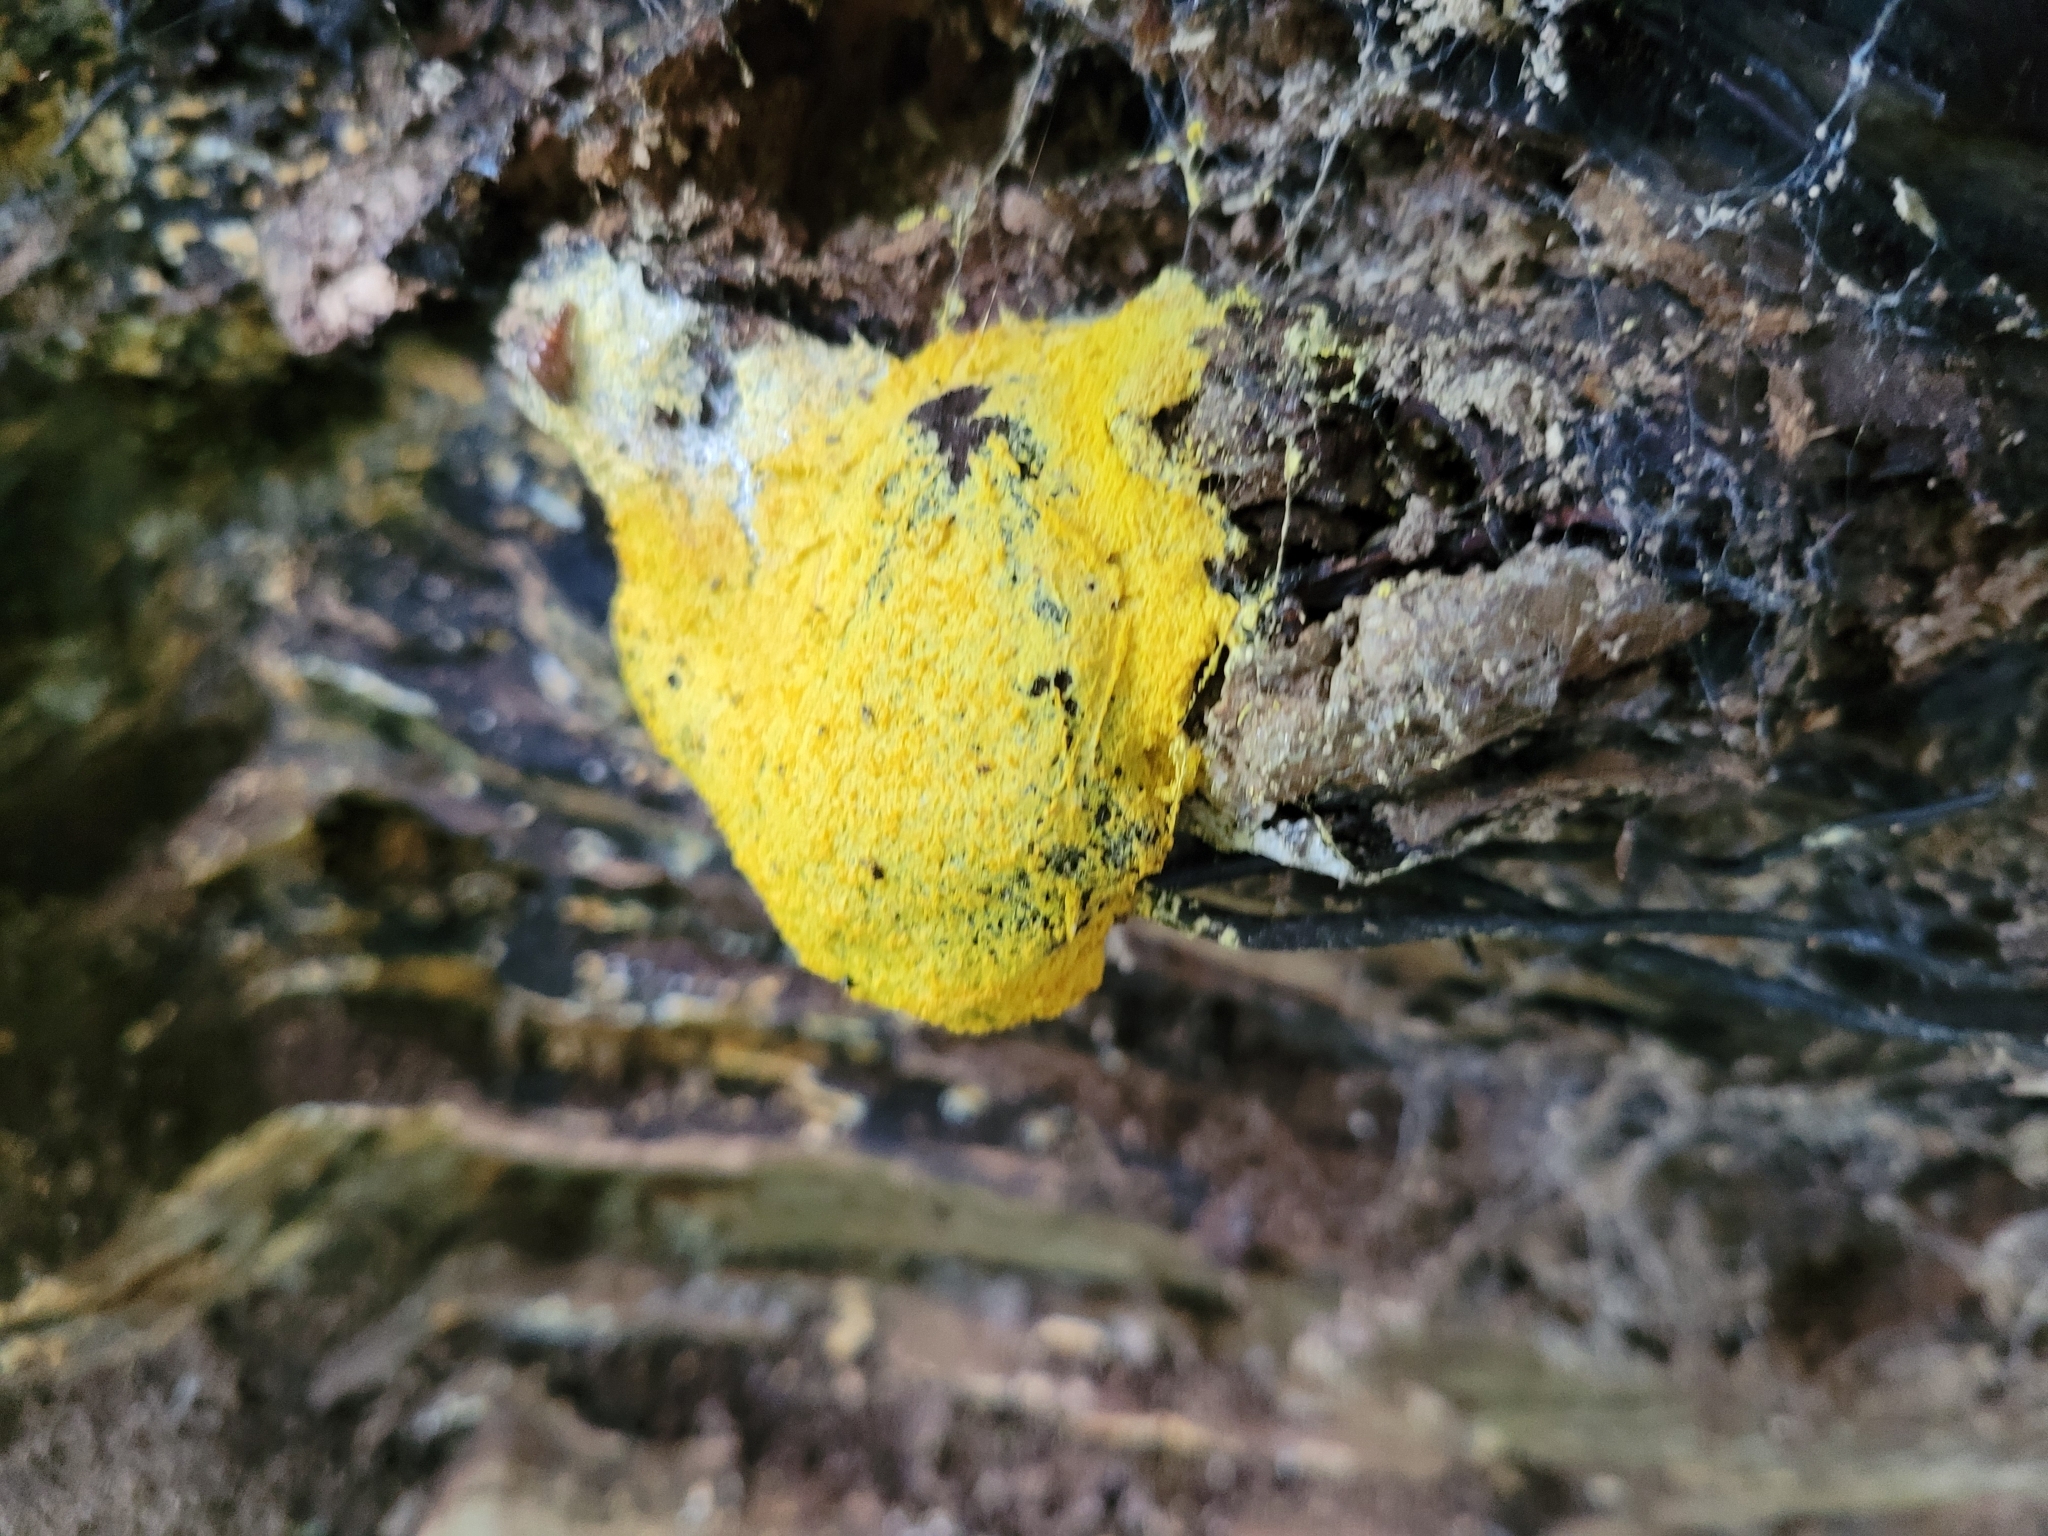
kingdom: Protozoa
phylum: Mycetozoa
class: Myxomycetes
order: Physarales
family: Physaraceae
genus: Fuligo
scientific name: Fuligo septica
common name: Dog vomit slime mold
